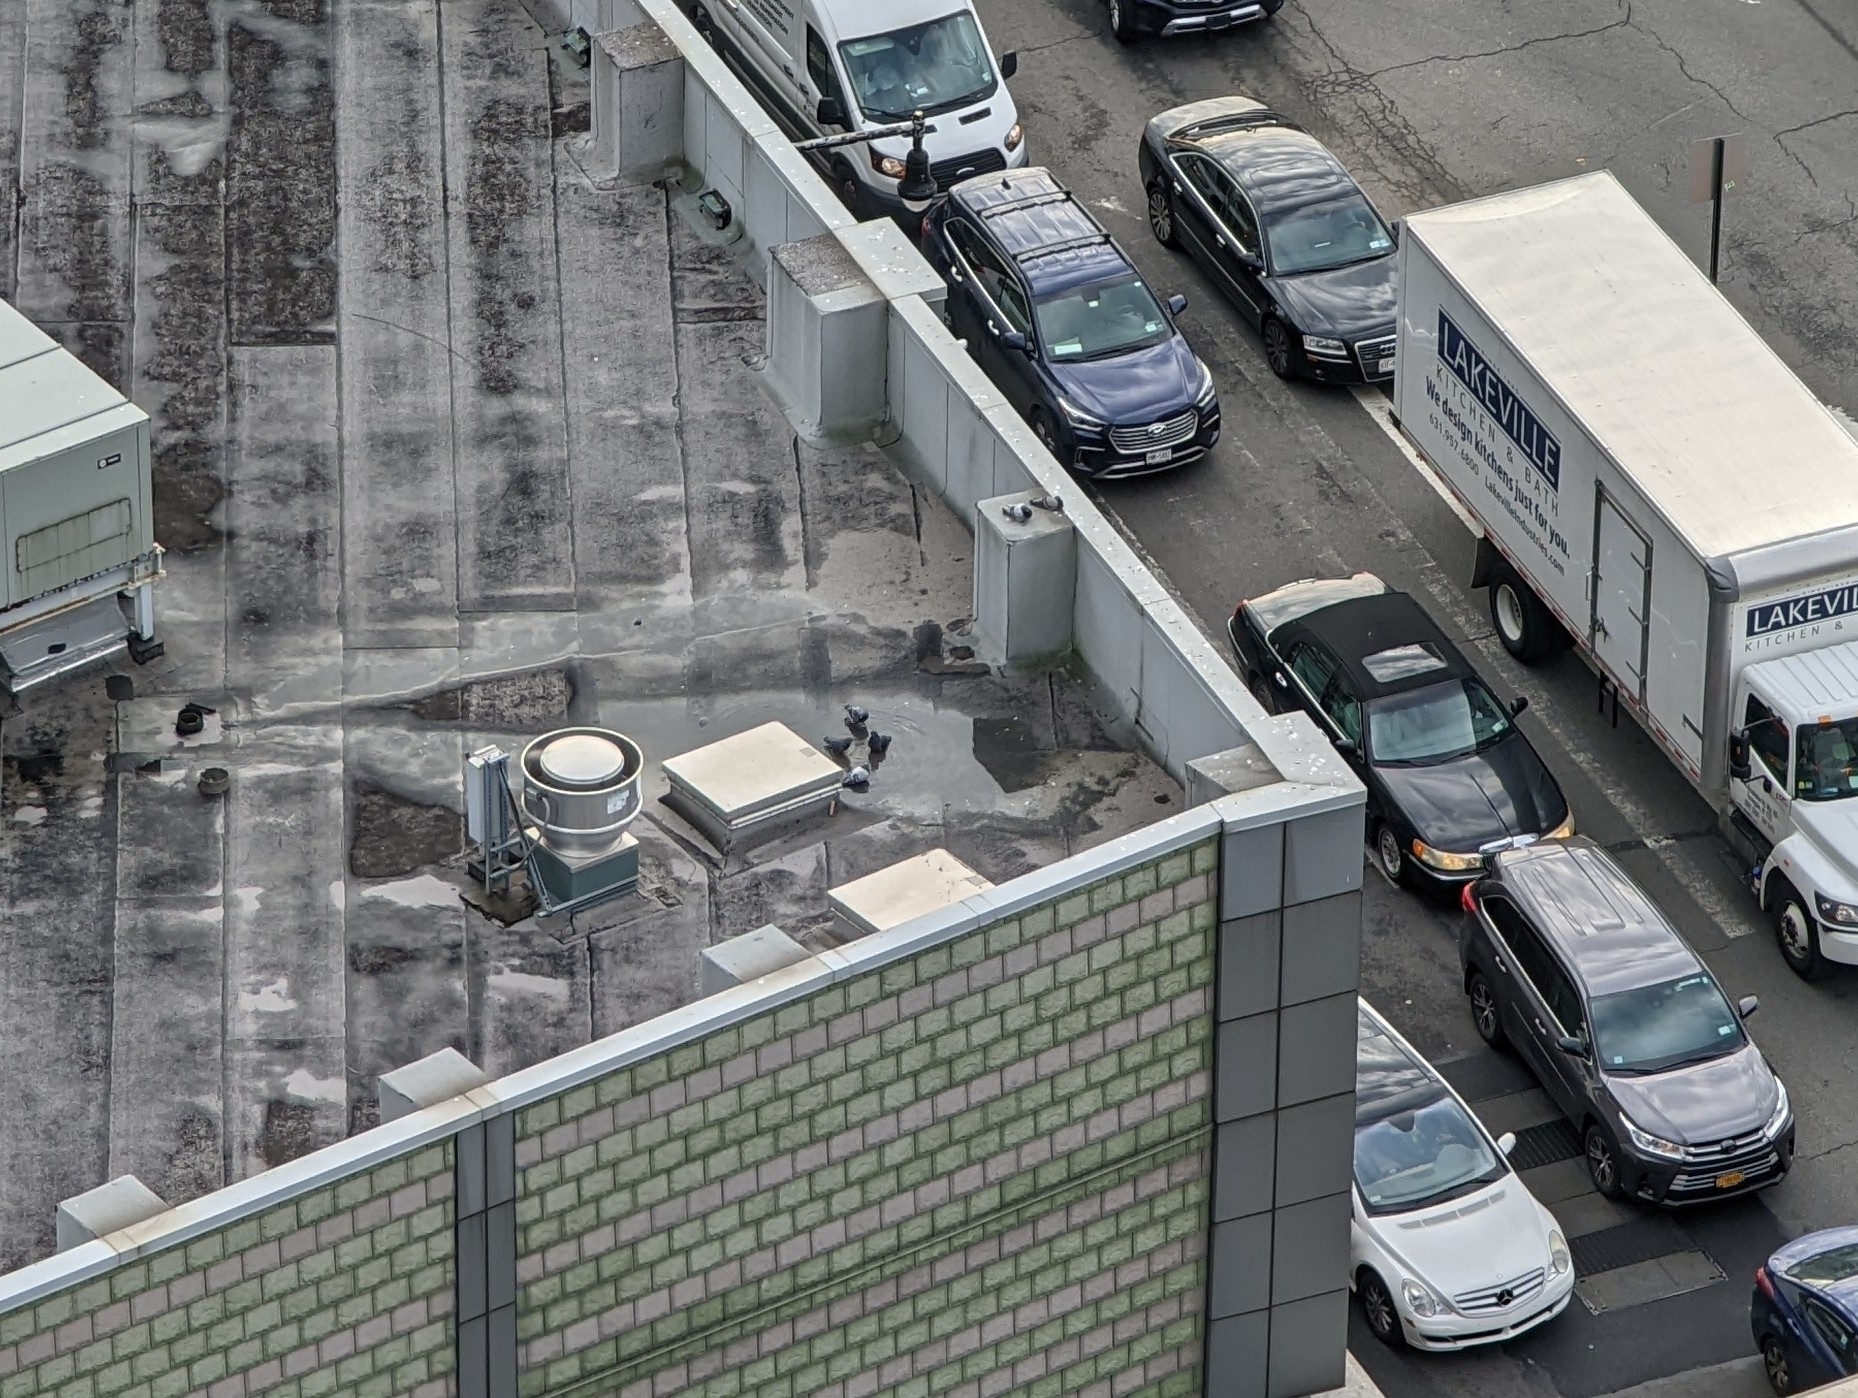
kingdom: Animalia
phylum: Chordata
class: Aves
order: Columbiformes
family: Columbidae
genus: Columba
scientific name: Columba livia
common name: Rock pigeon
